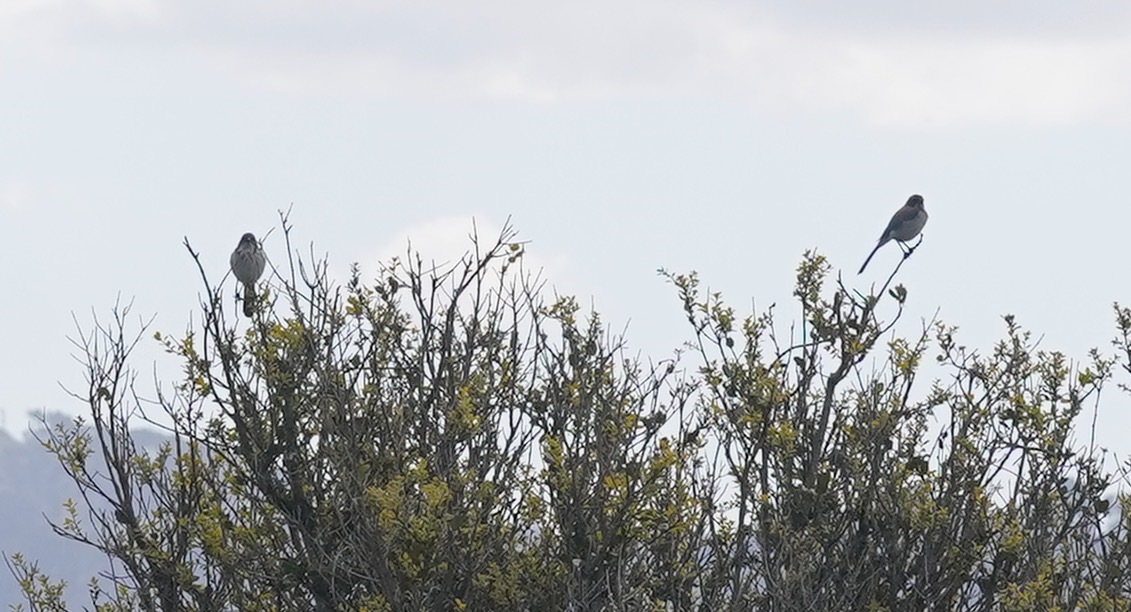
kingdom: Animalia
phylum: Chordata
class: Aves
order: Passeriformes
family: Corvidae
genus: Aphelocoma
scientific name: Aphelocoma californica
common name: California scrub-jay
